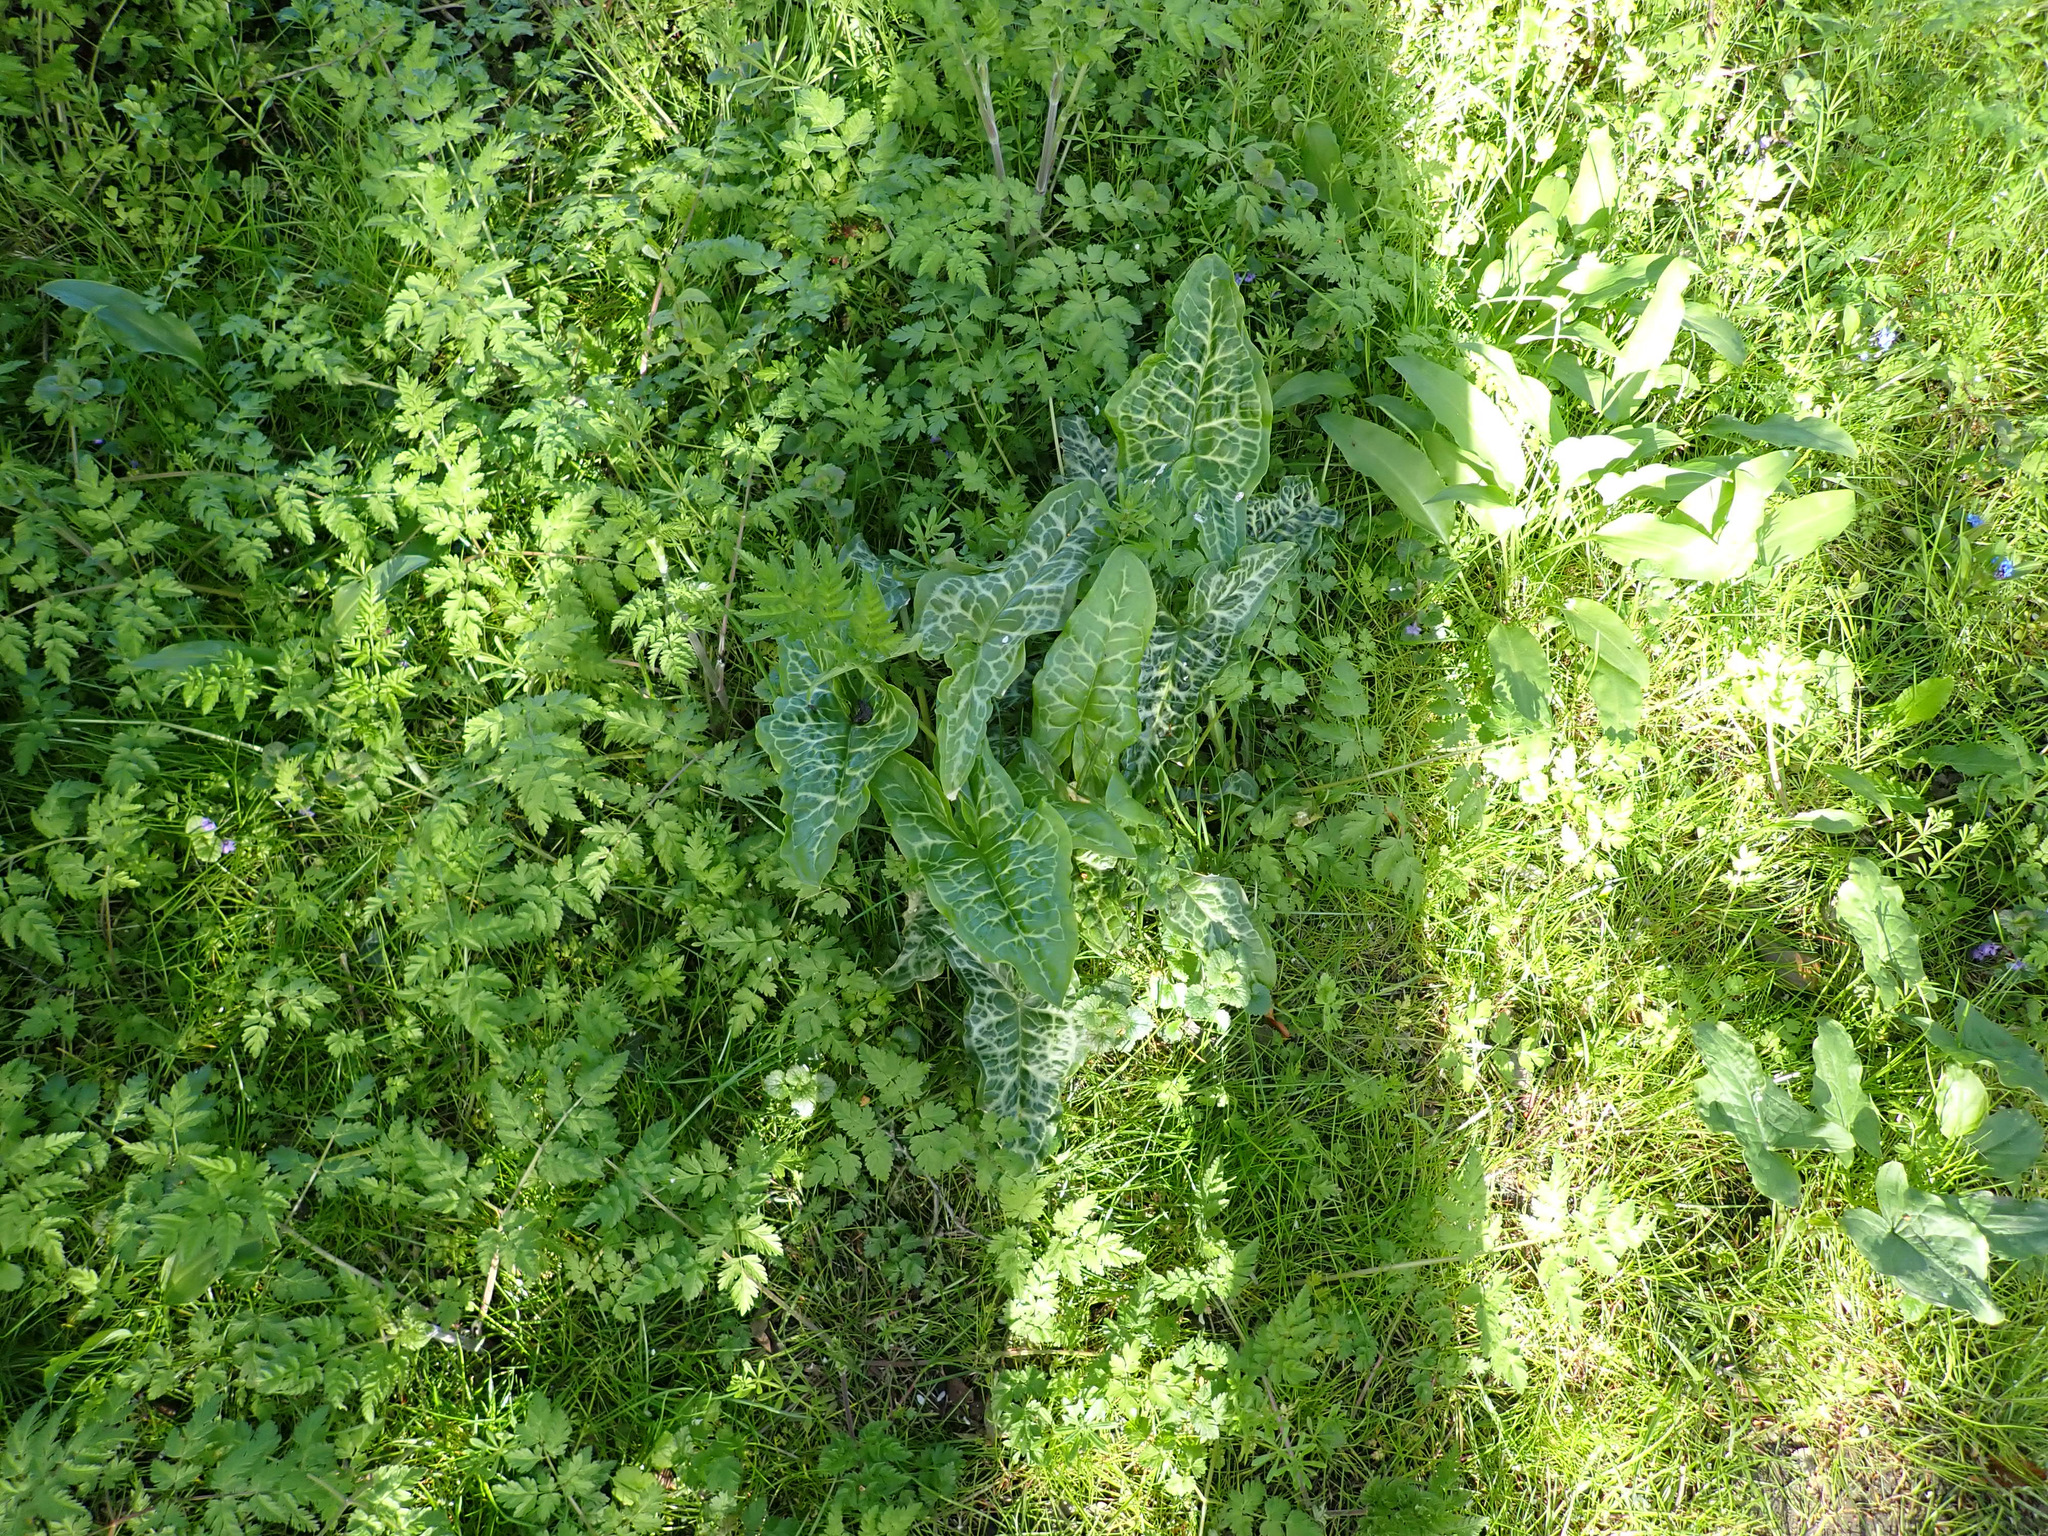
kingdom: Plantae
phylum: Tracheophyta
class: Liliopsida
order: Alismatales
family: Araceae
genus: Arum
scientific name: Arum italicum
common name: Italian lords-and-ladies
